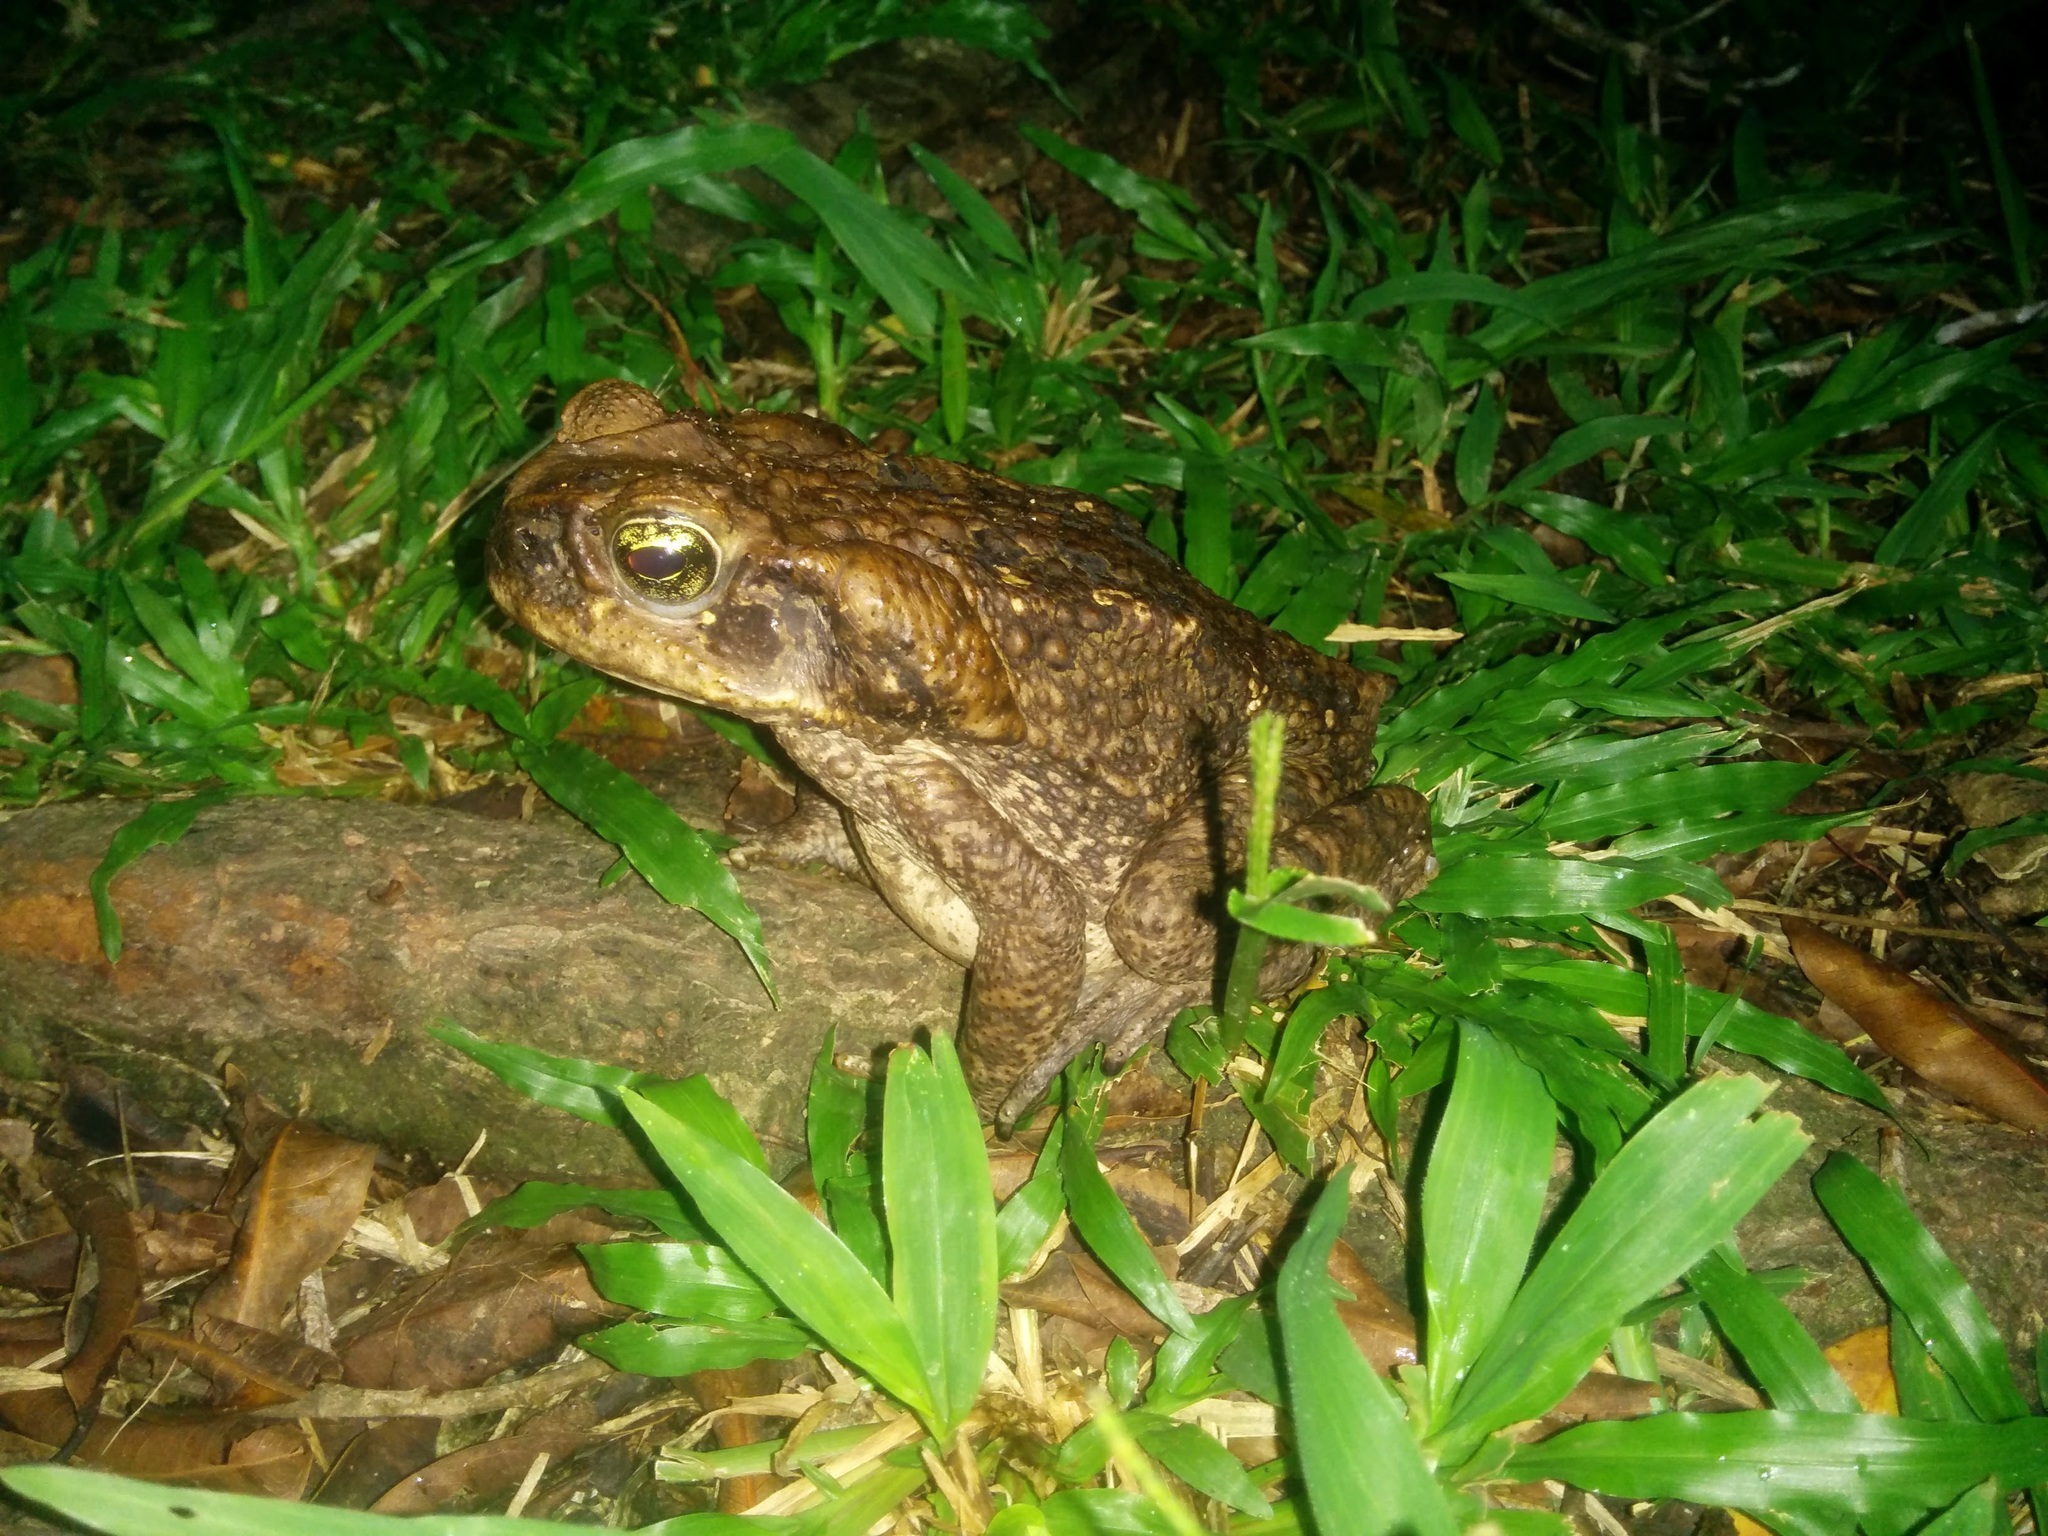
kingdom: Animalia
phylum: Chordata
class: Amphibia
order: Anura
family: Bufonidae
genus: Rhinella
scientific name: Rhinella marina
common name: Cane toad
